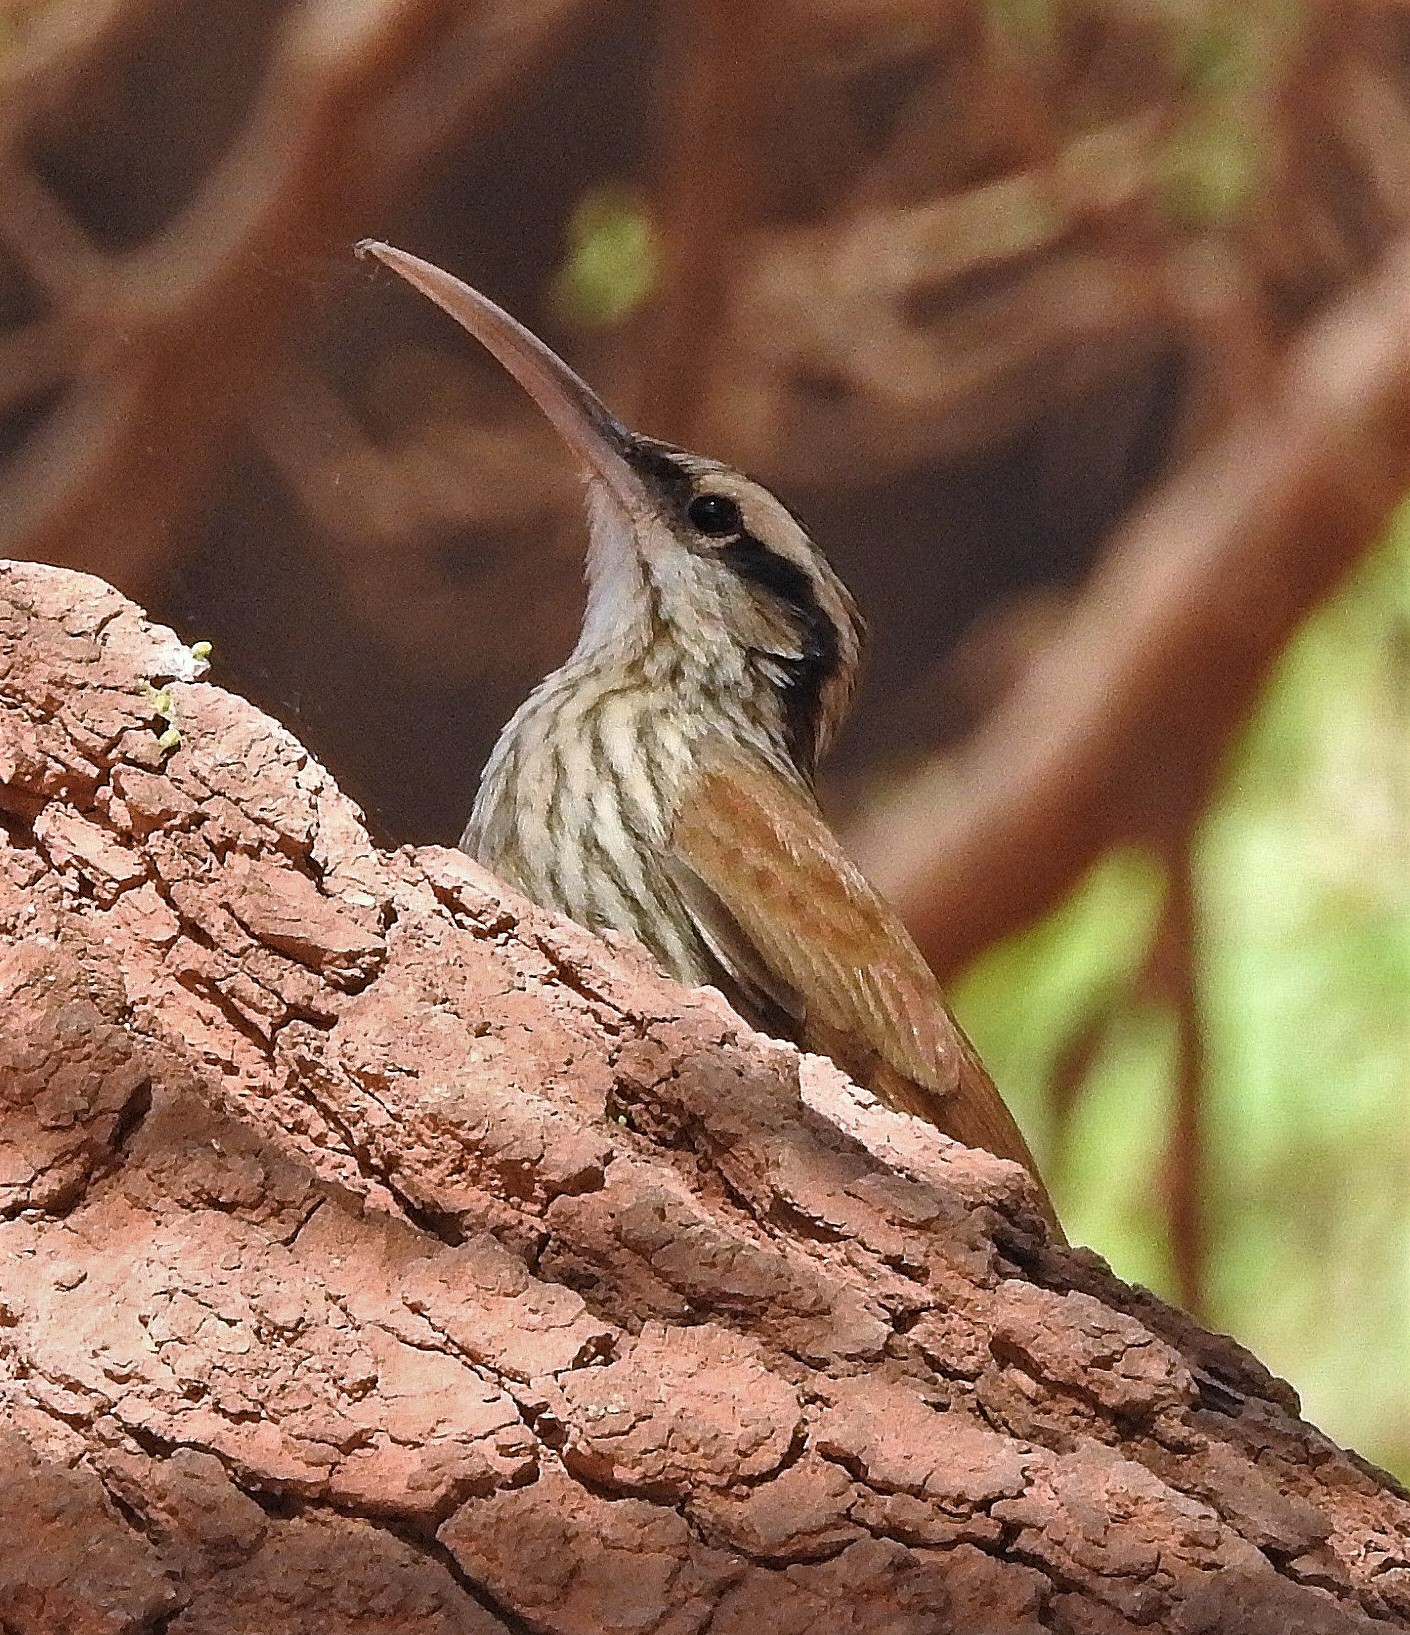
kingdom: Animalia
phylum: Chordata
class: Aves
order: Passeriformes
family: Furnariidae
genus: Lepidocolaptes
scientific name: Lepidocolaptes angustirostris
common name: Narrow-billed woodcreeper
